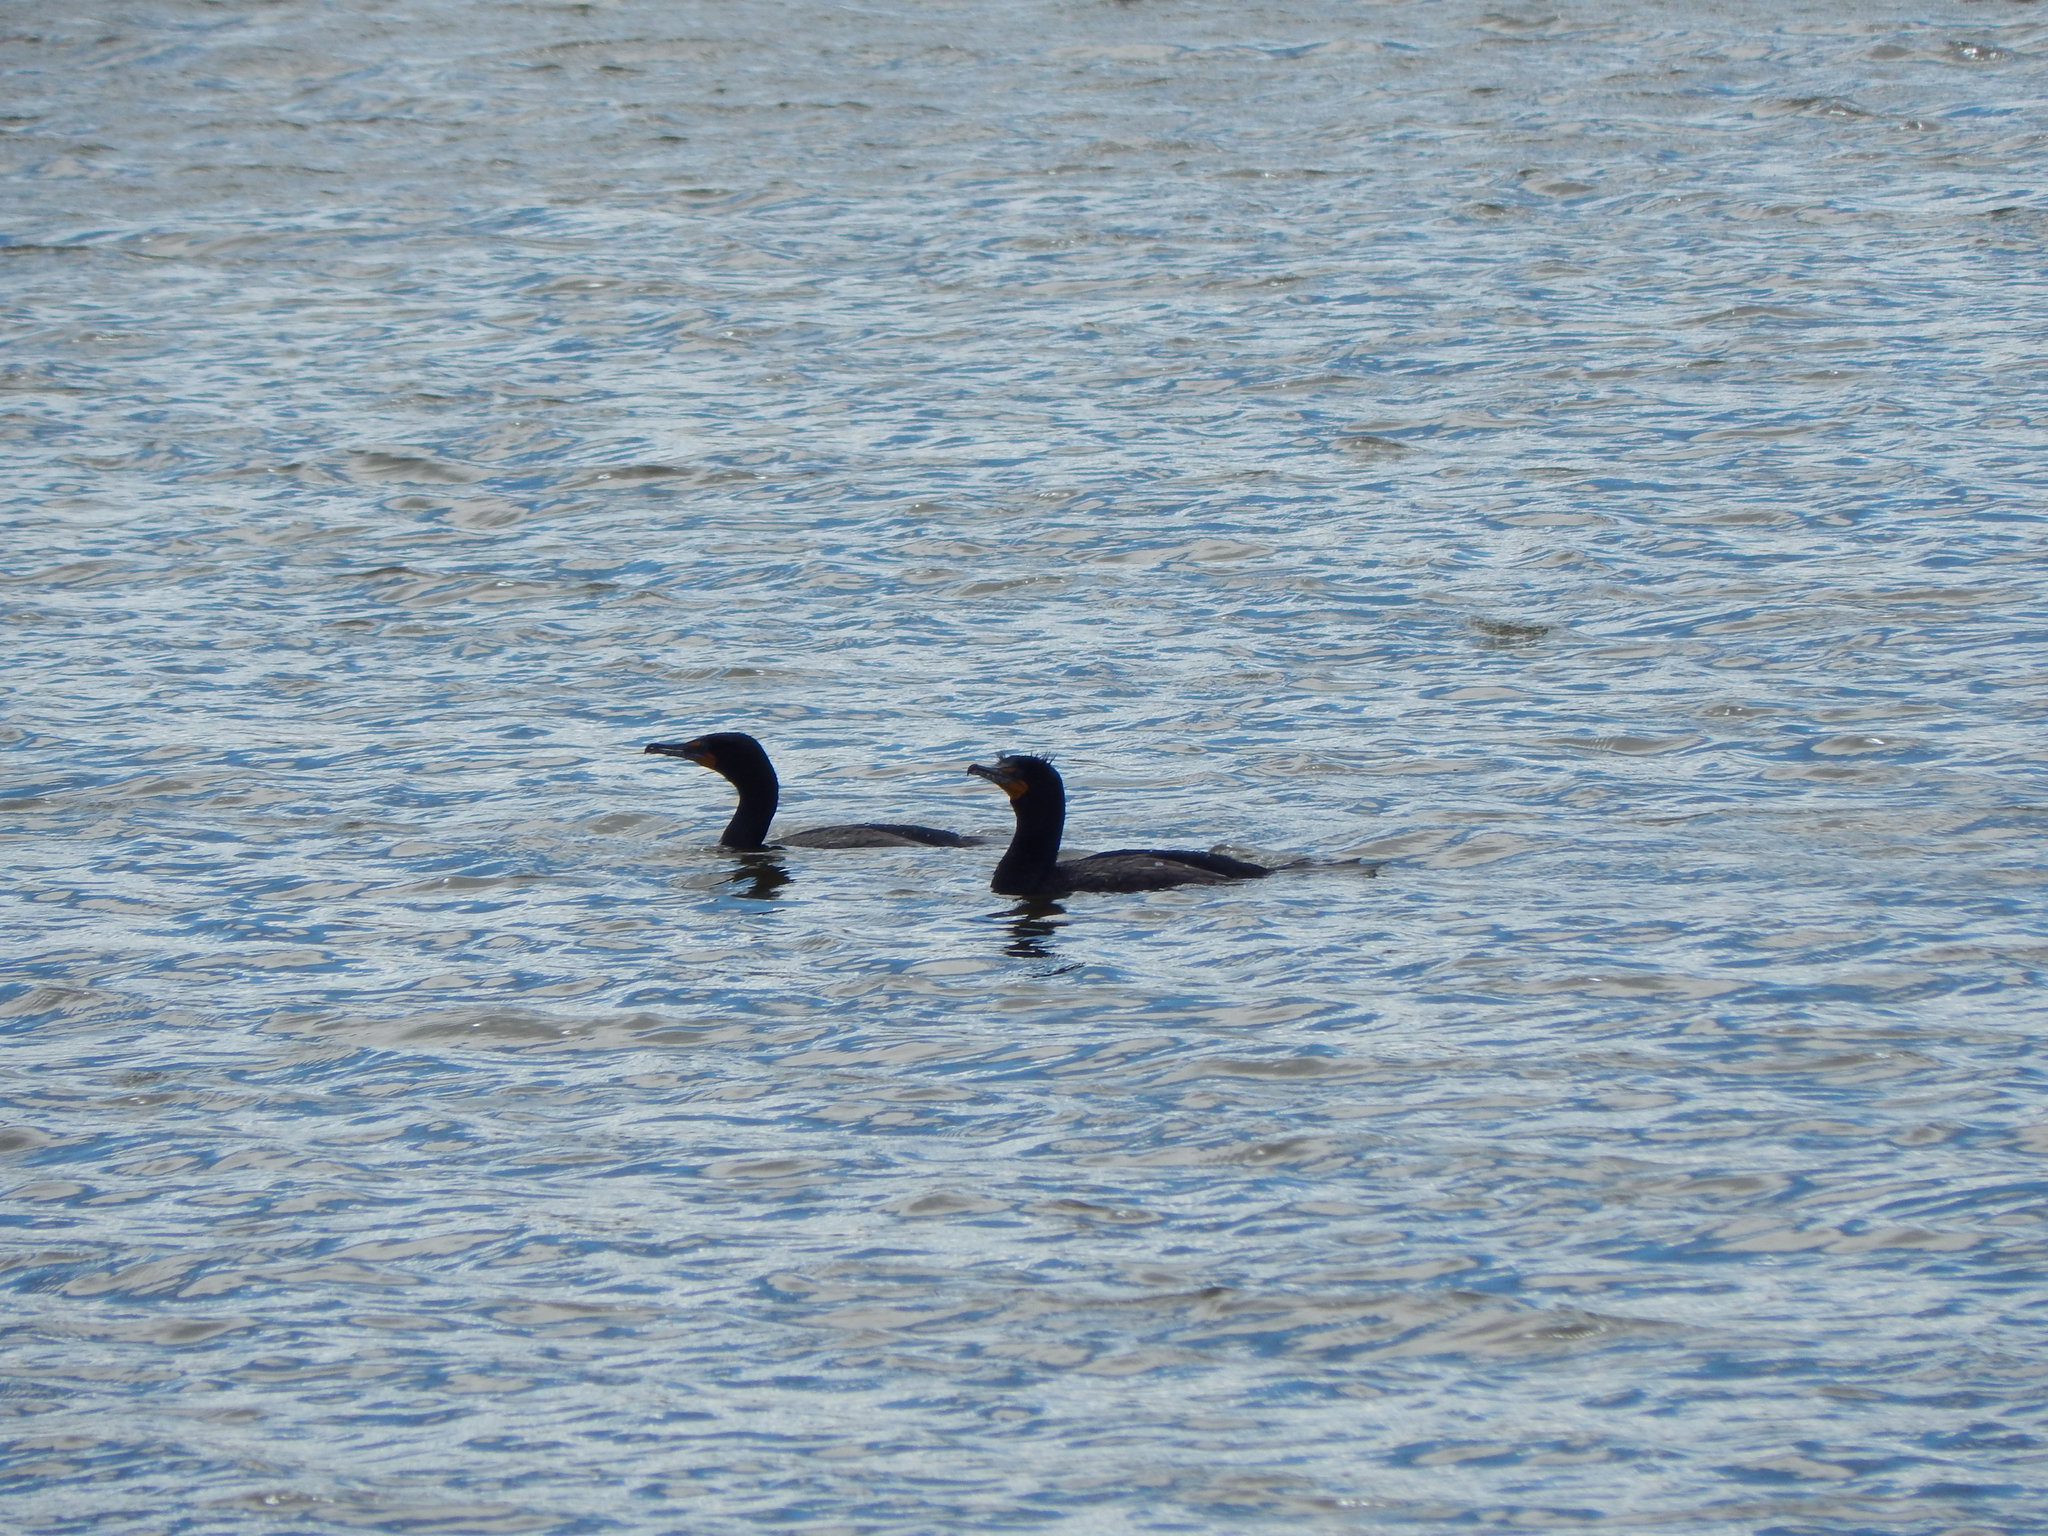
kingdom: Animalia
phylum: Chordata
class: Aves
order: Suliformes
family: Phalacrocoracidae
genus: Phalacrocorax
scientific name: Phalacrocorax auritus
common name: Double-crested cormorant
